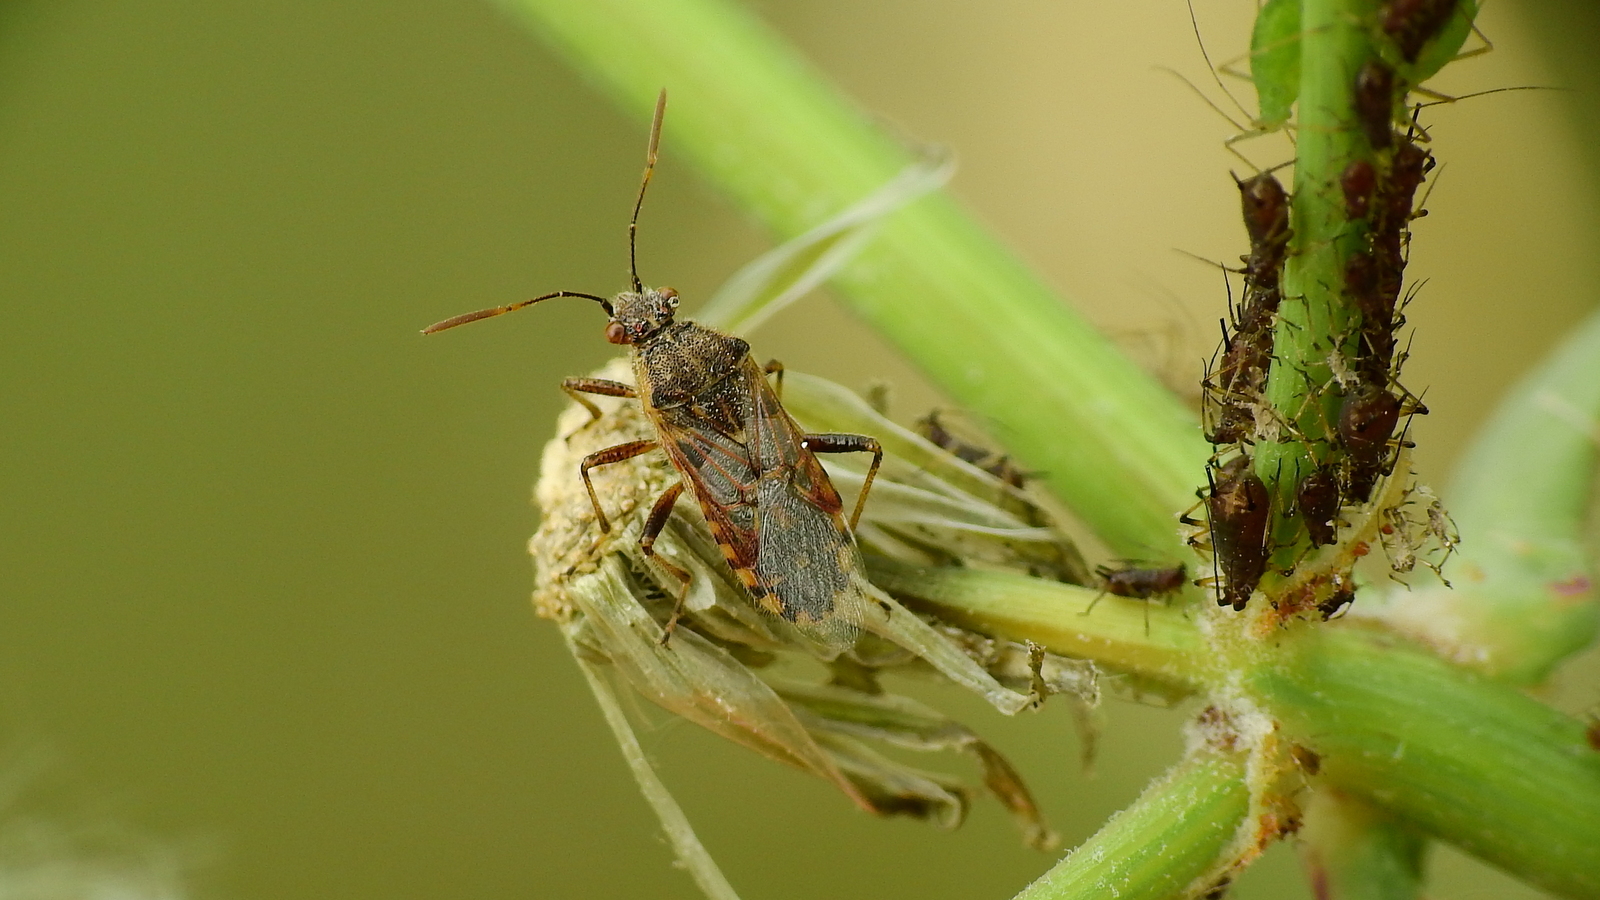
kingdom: Animalia
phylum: Arthropoda
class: Insecta
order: Hemiptera
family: Rhopalidae
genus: Liorhyssus
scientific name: Liorhyssus hyalinus
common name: Scentless plant bug
